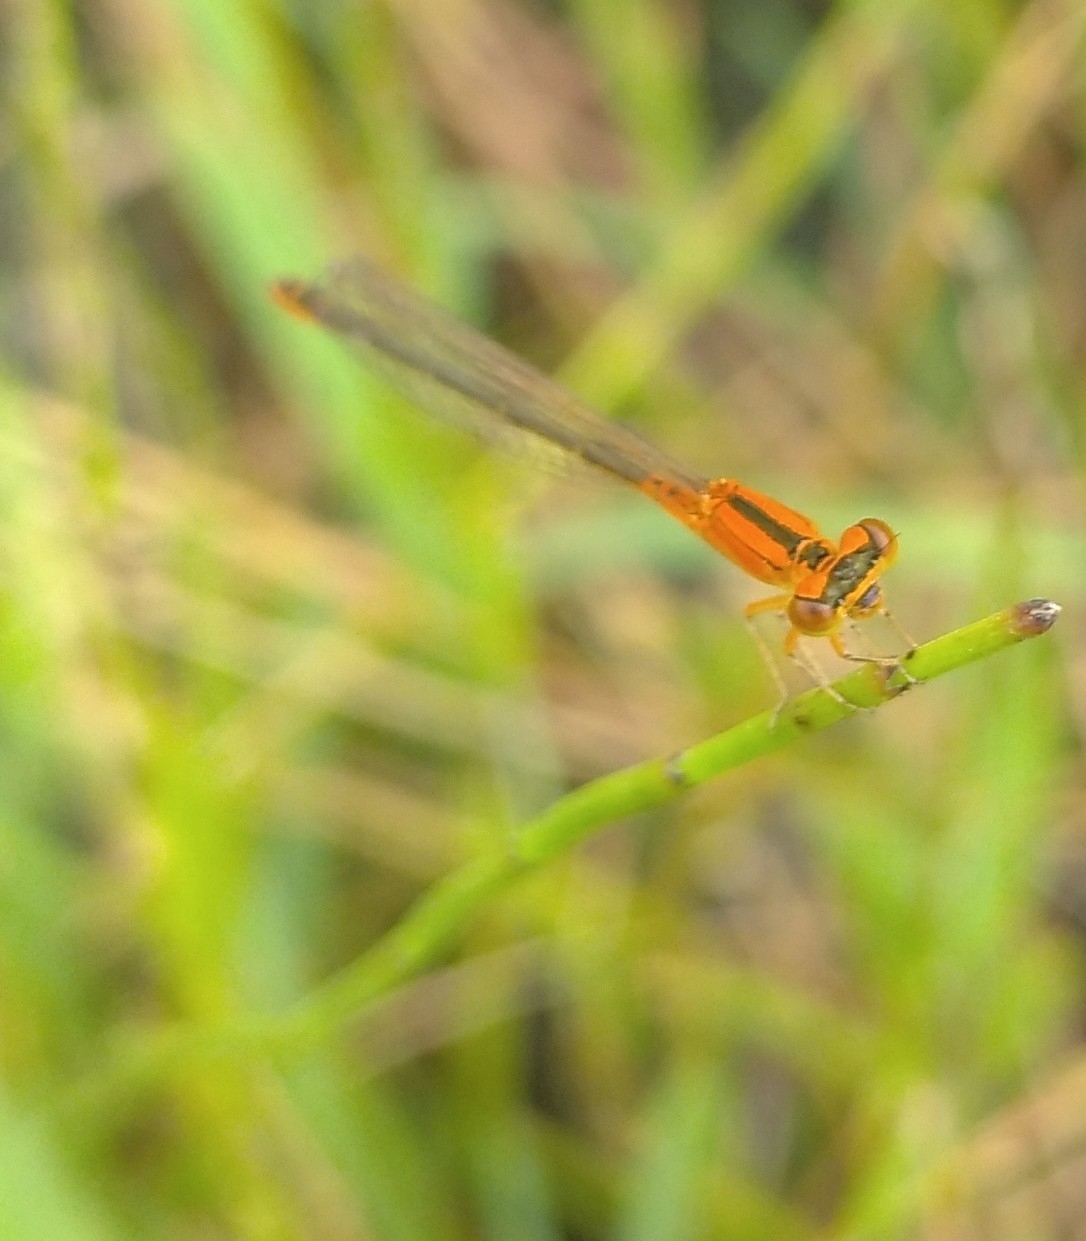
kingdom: Animalia
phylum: Arthropoda
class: Insecta
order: Odonata
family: Coenagrionidae
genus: Ischnura
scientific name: Ischnura pumilio
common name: Scarce blue-tailed damselfly
